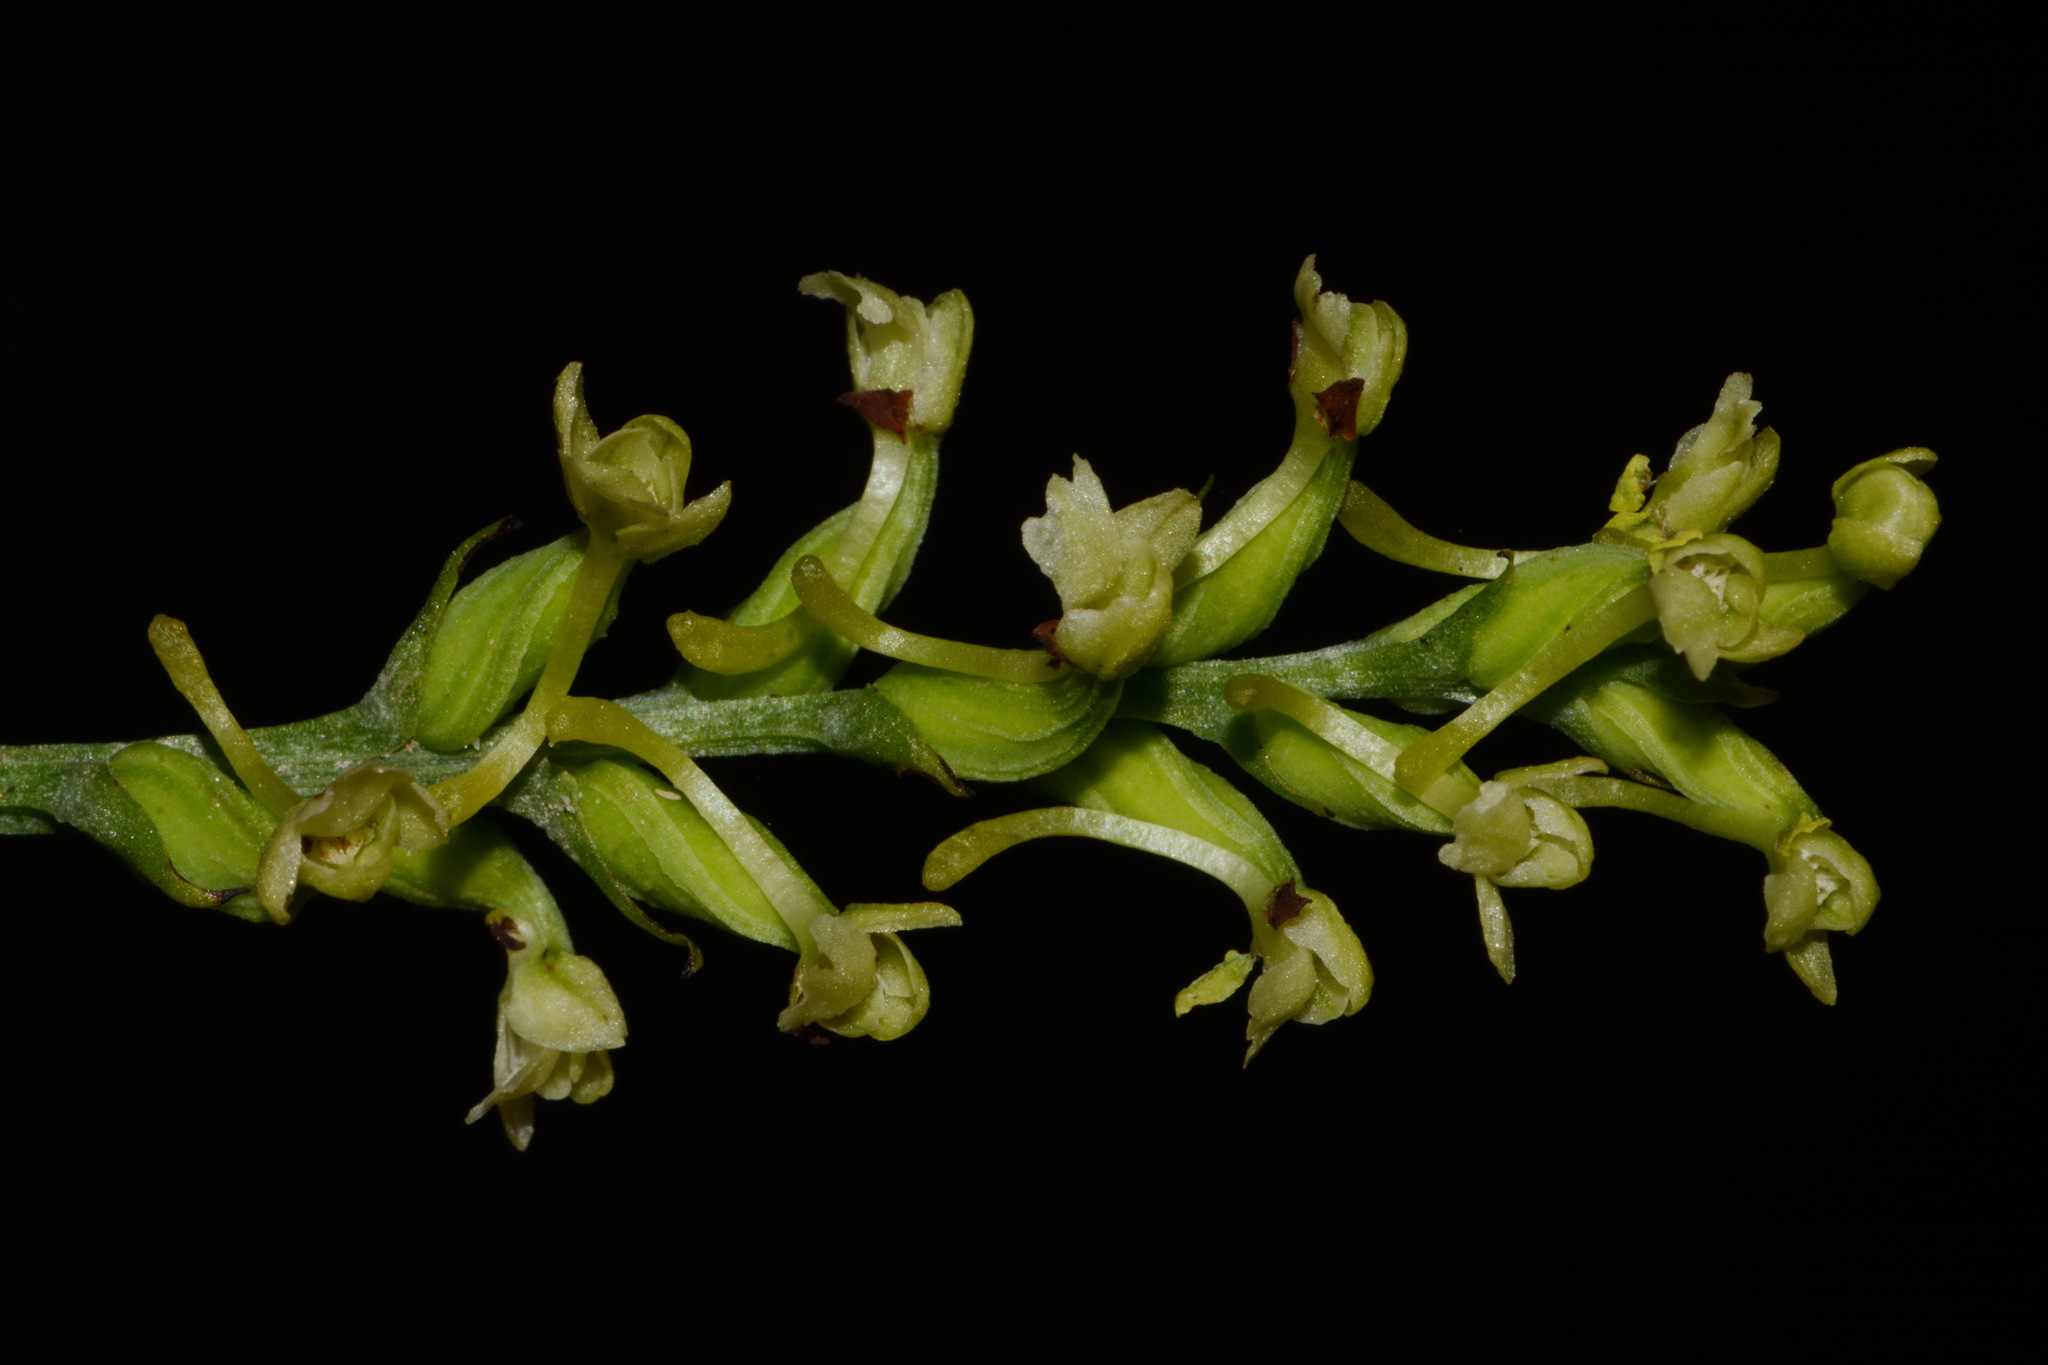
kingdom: Plantae
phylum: Tracheophyta
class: Liliopsida
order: Asparagales
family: Orchidaceae
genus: Platanthera
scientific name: Platanthera clavellata
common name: Club-spur orchid
